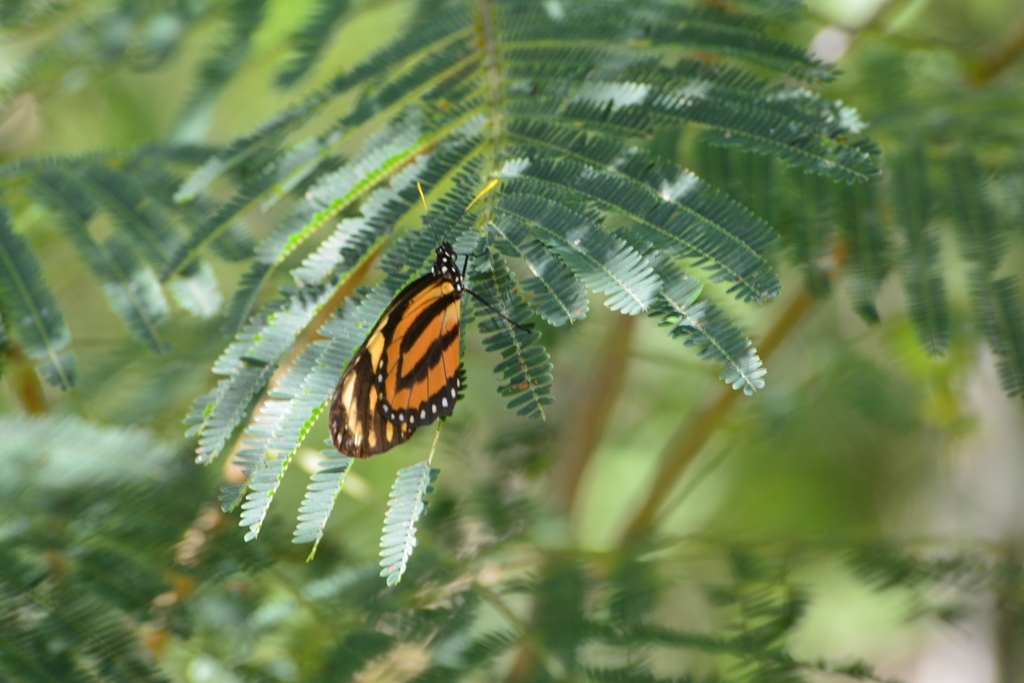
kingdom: Animalia
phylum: Arthropoda
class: Insecta
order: Lepidoptera
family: Nymphalidae
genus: Lycorea
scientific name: Lycorea cleobaea
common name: Tiger mimic-queen
